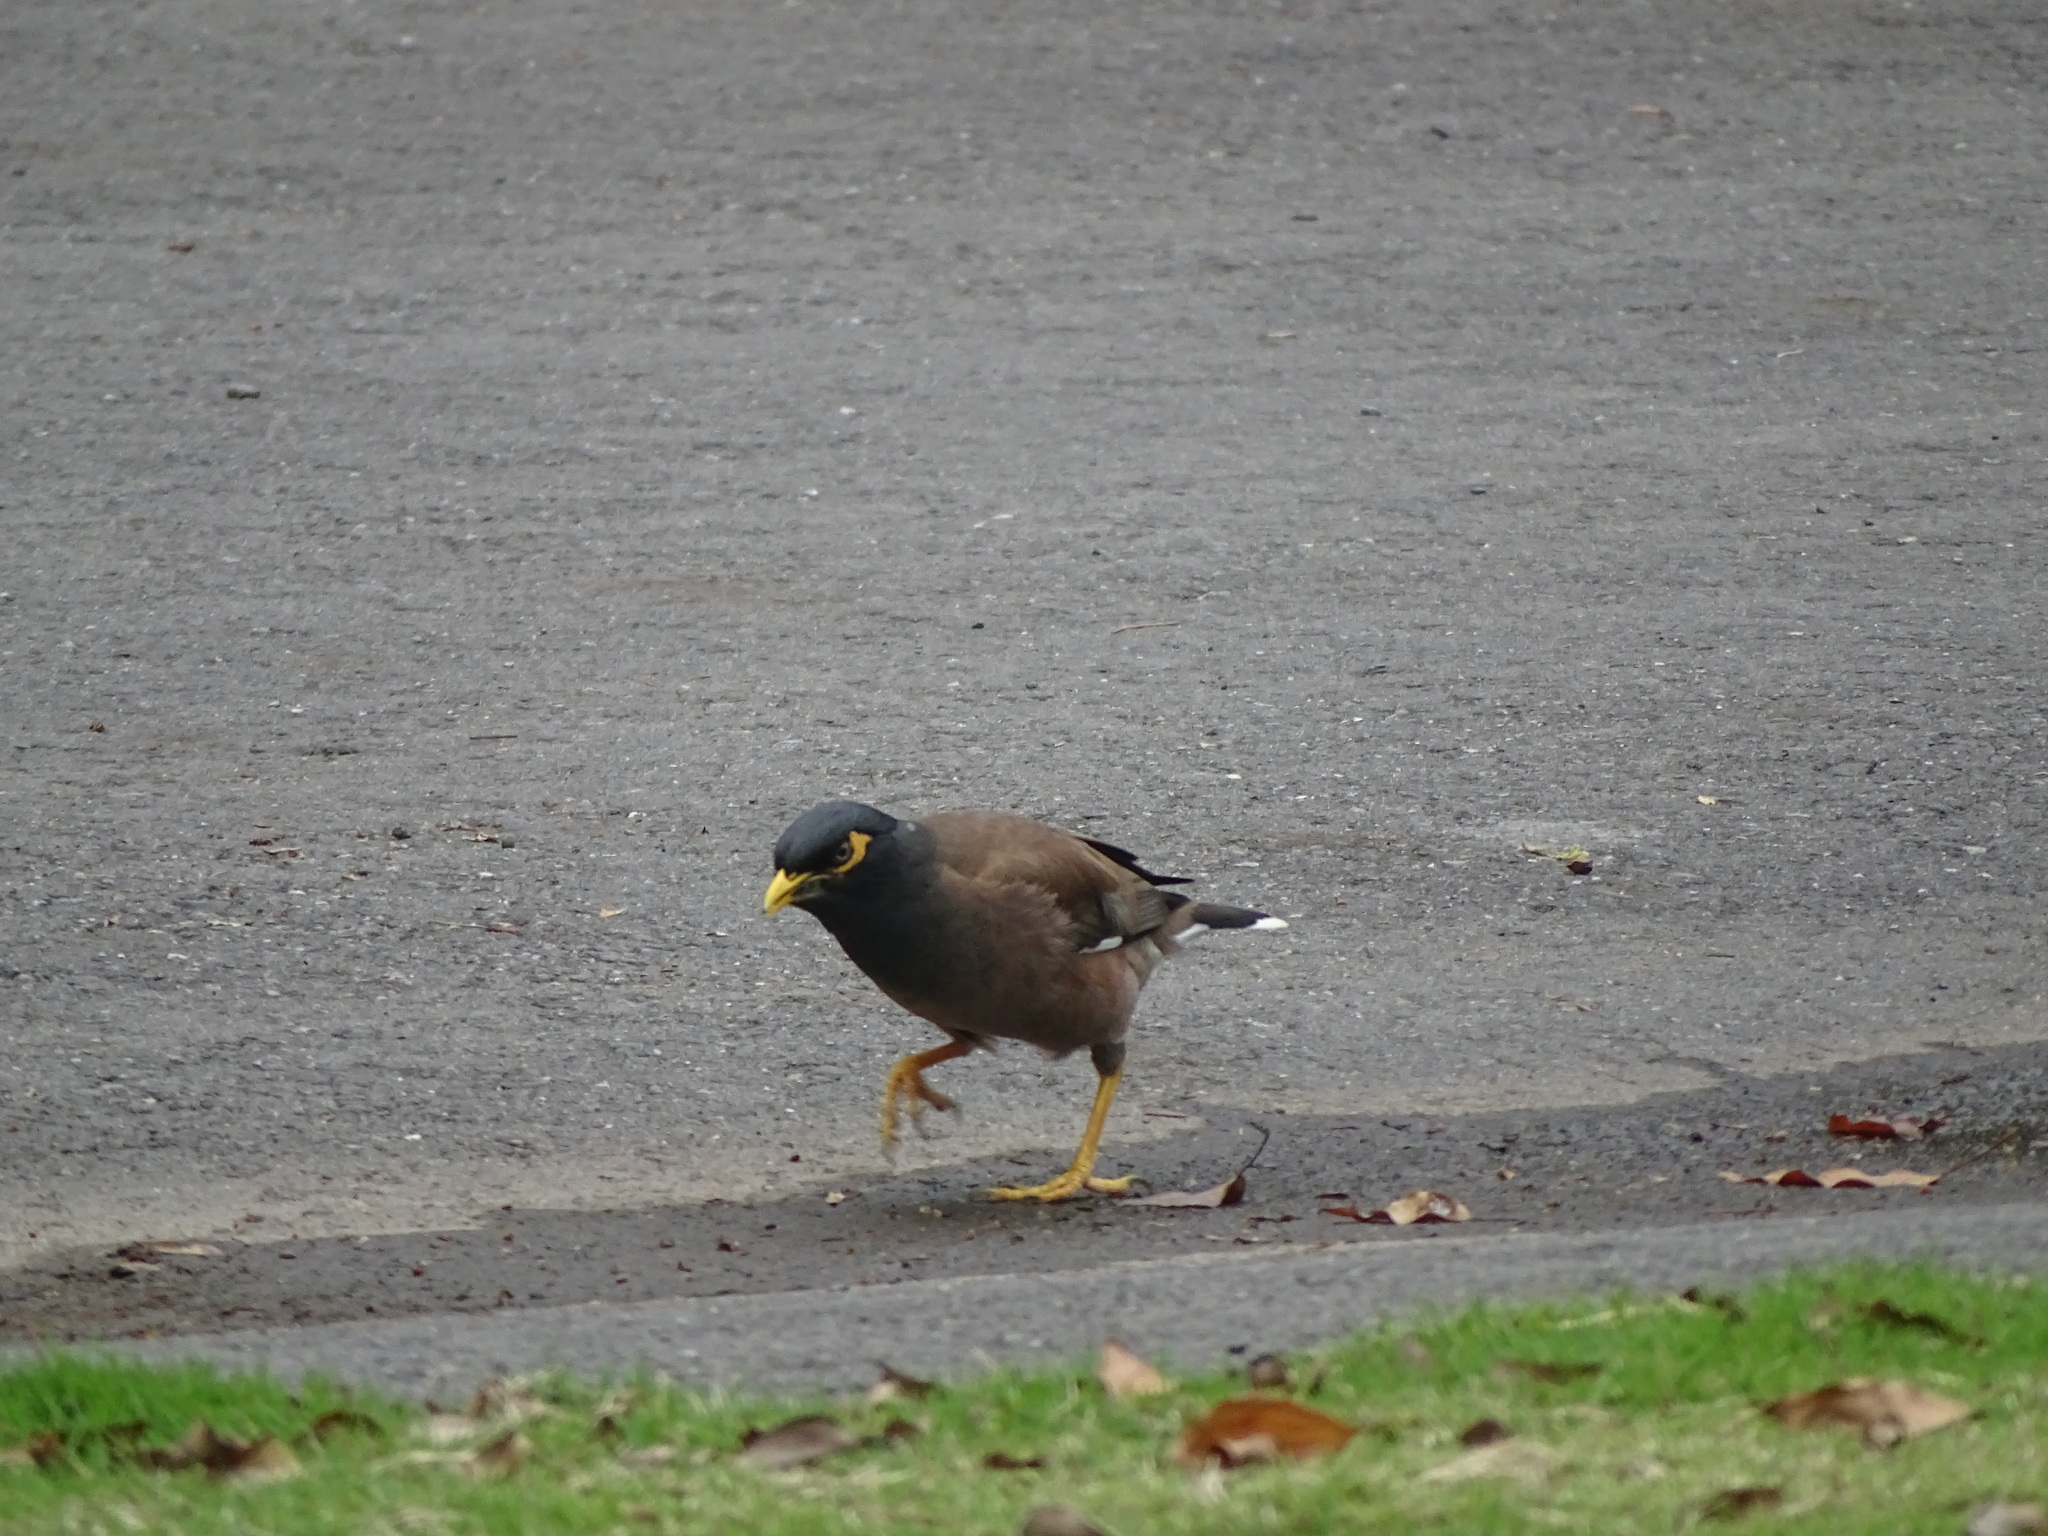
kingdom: Animalia
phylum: Chordata
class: Aves
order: Passeriformes
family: Sturnidae
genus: Acridotheres
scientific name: Acridotheres tristis
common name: Common myna
